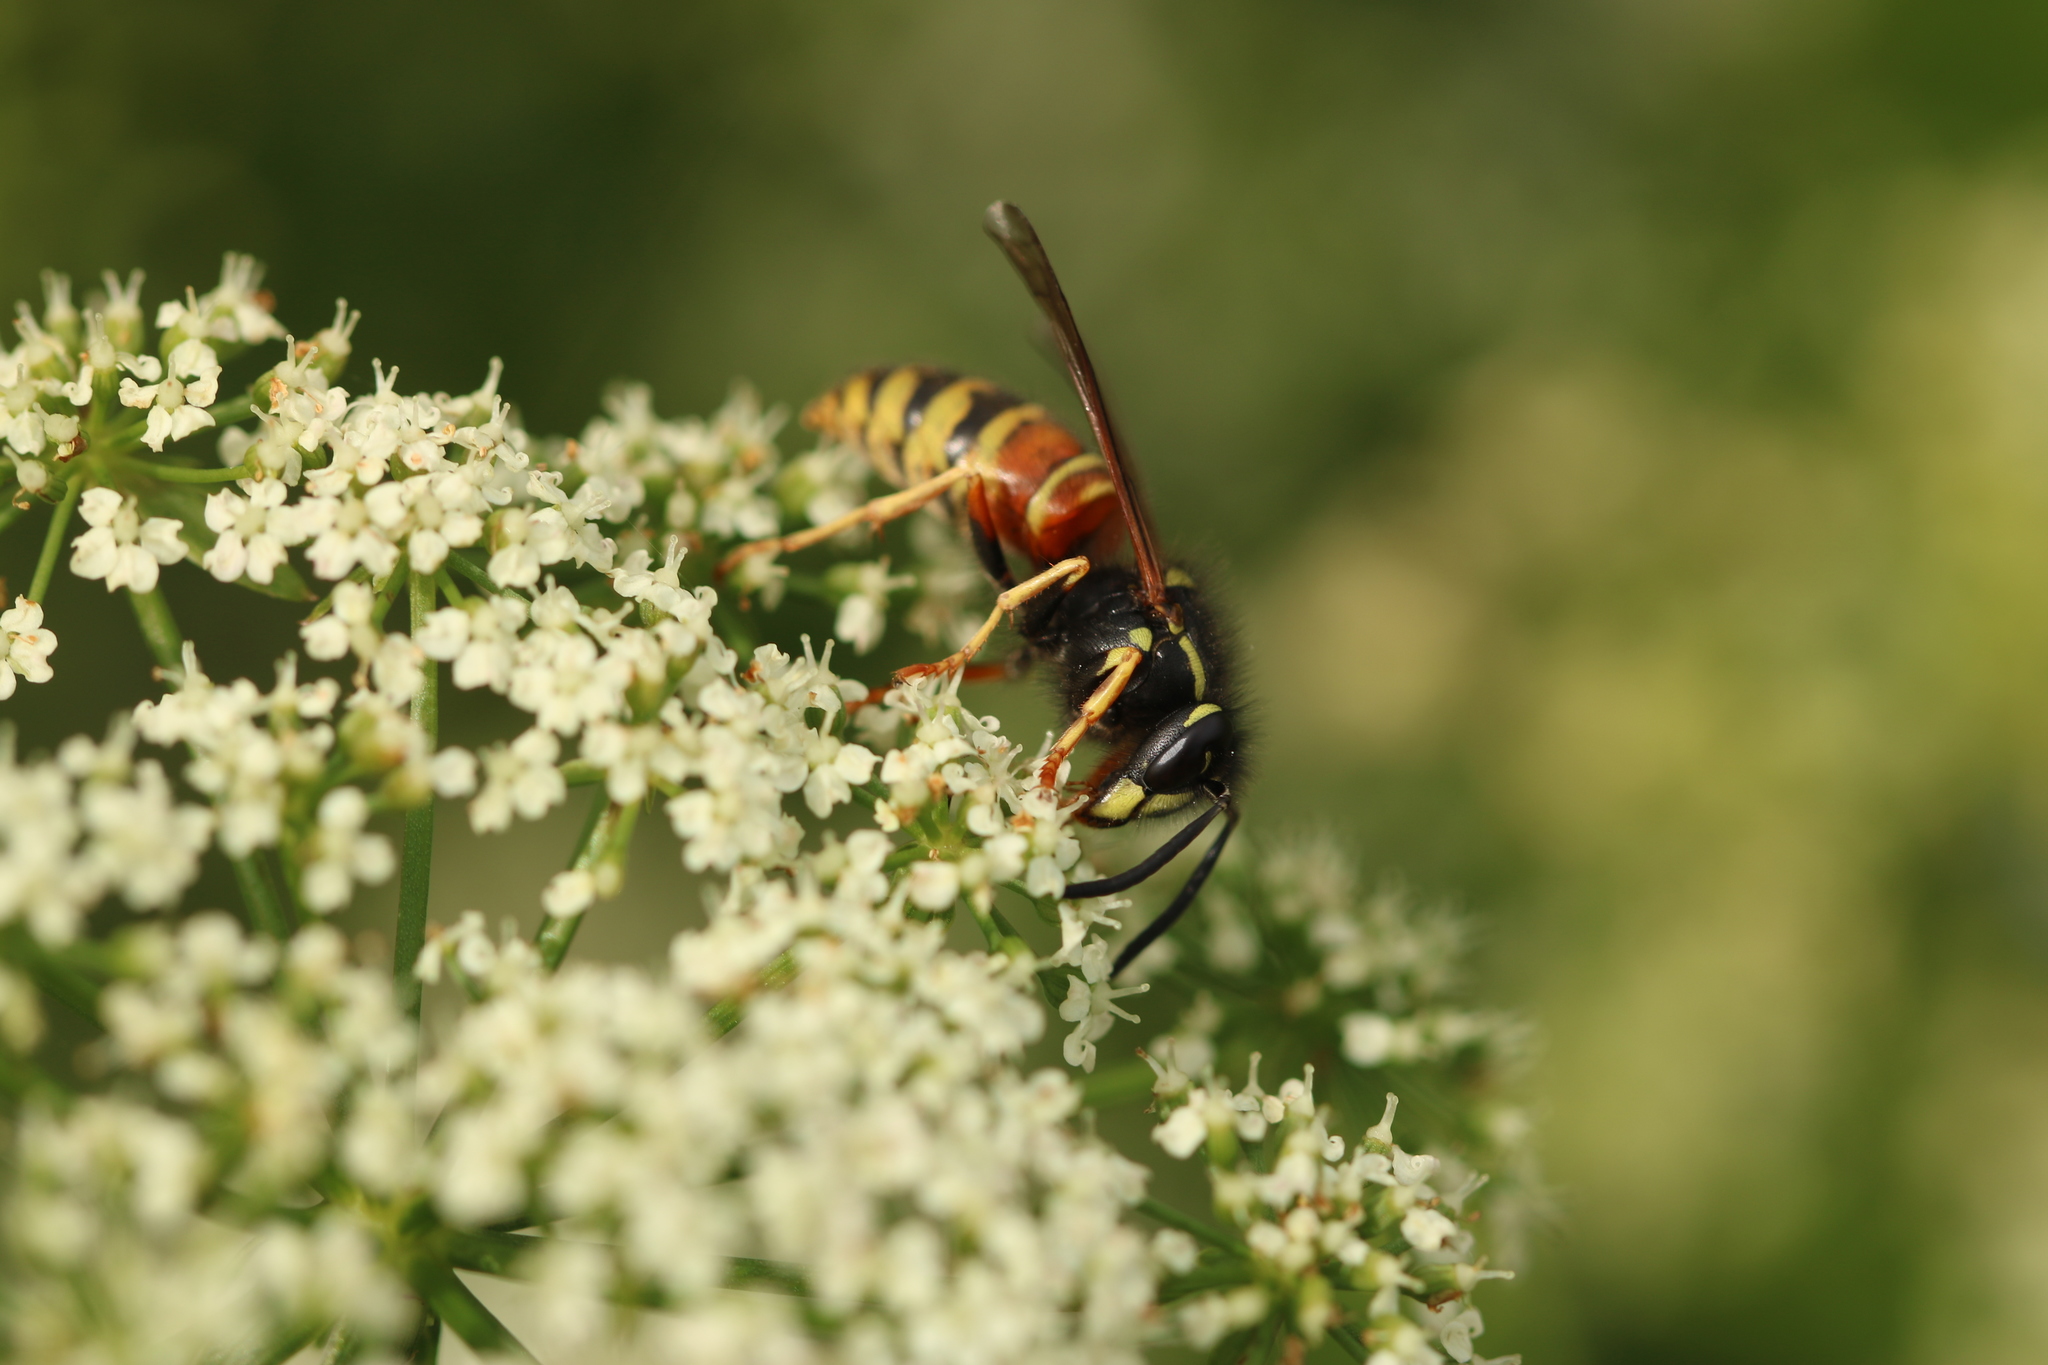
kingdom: Animalia
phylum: Arthropoda
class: Insecta
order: Hymenoptera
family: Vespidae
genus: Vespula
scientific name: Vespula rufa
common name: Red wasp
